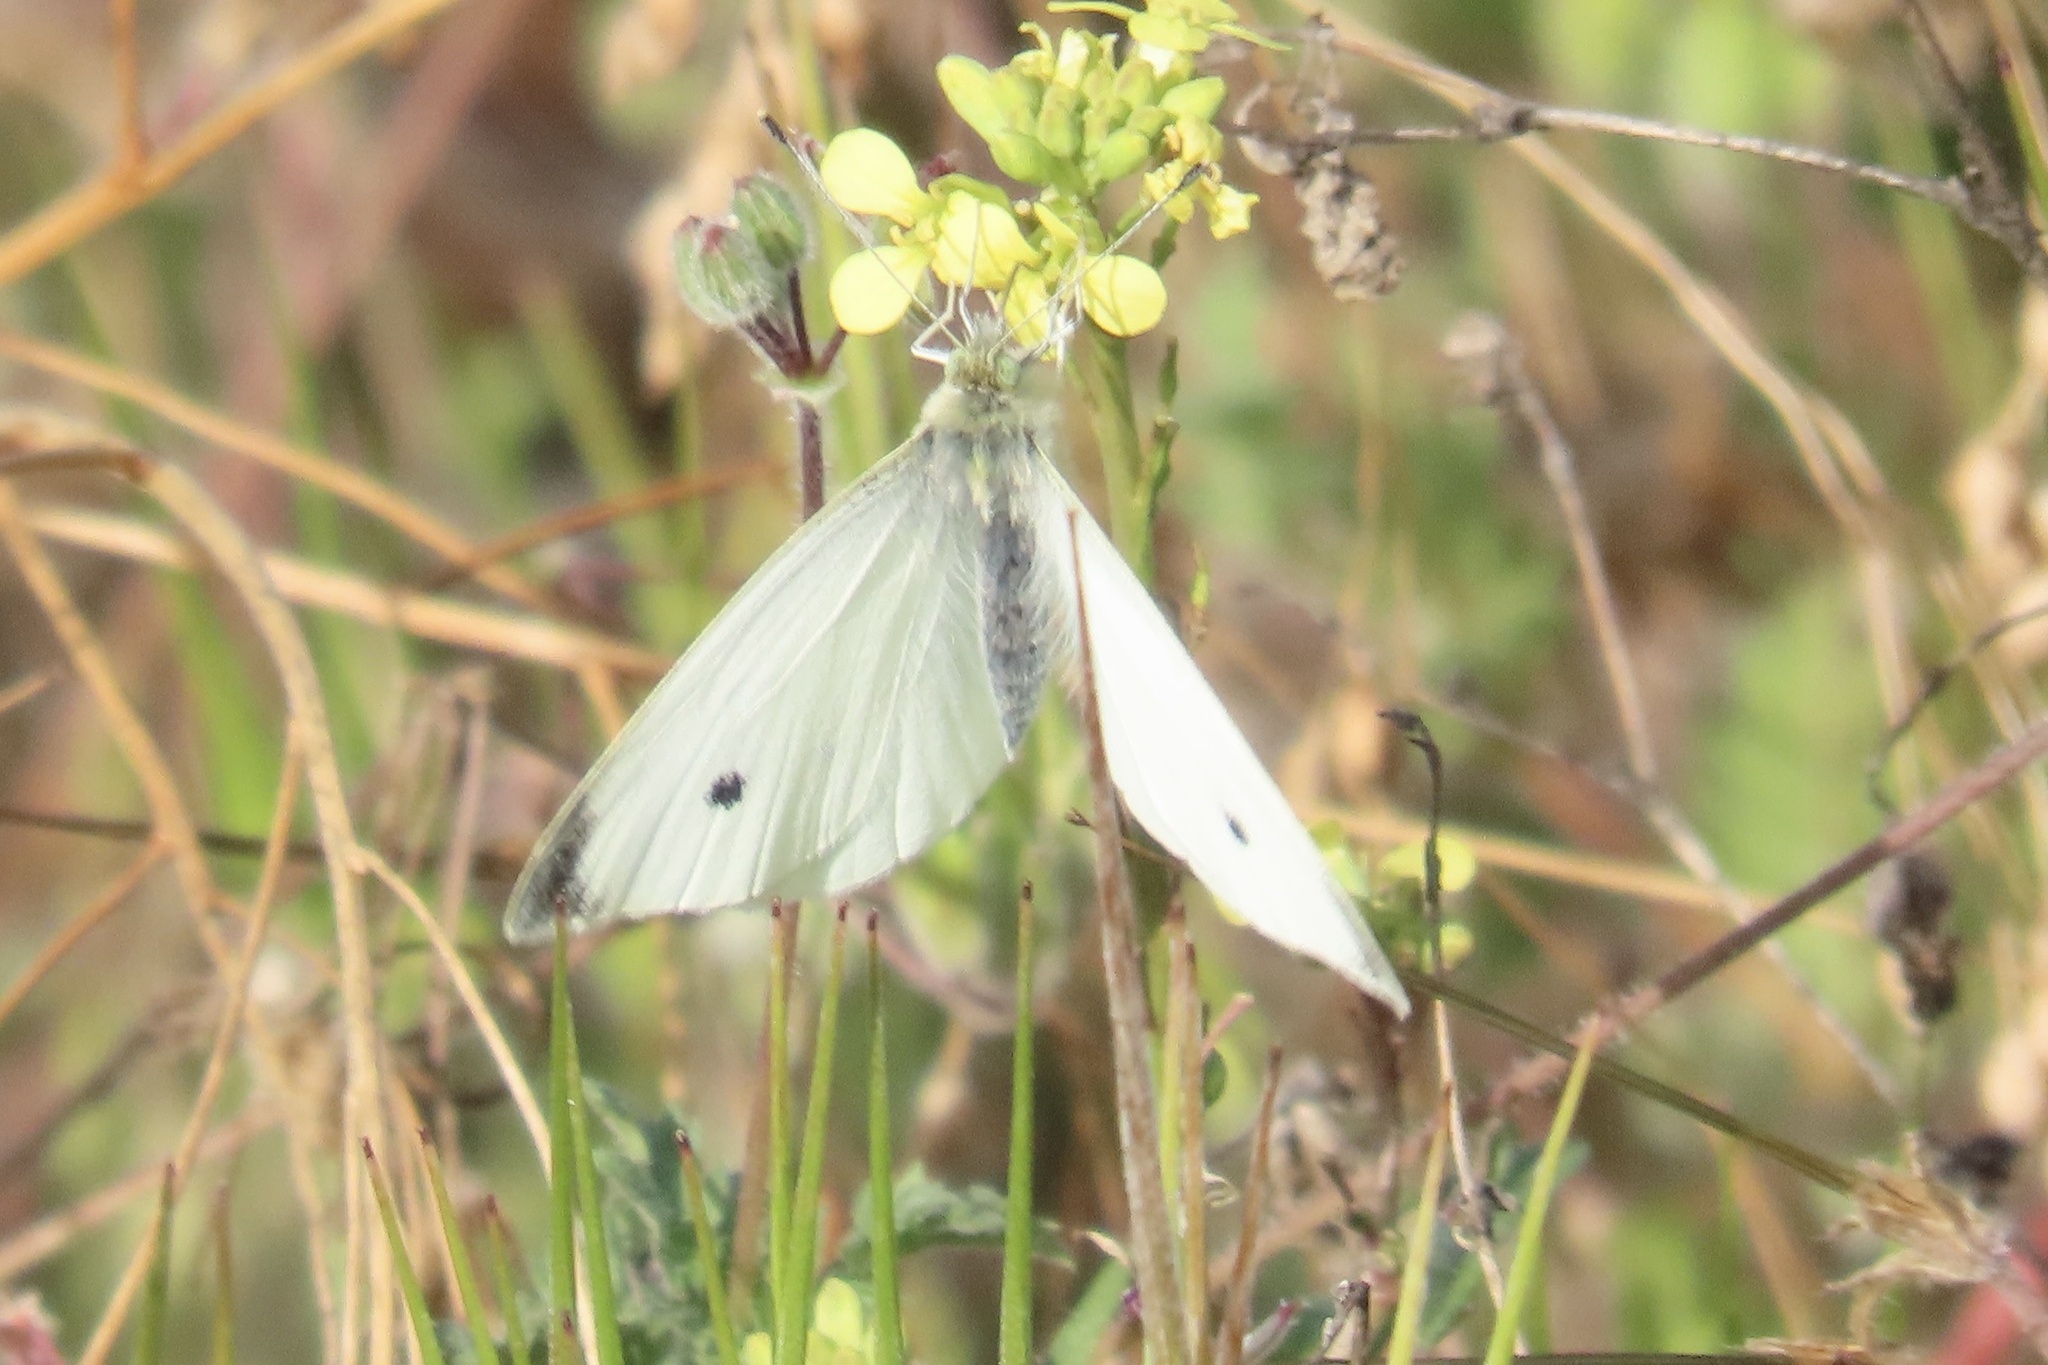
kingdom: Animalia
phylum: Arthropoda
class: Insecta
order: Lepidoptera
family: Pieridae
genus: Pieris
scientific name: Pieris rapae
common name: Small white
